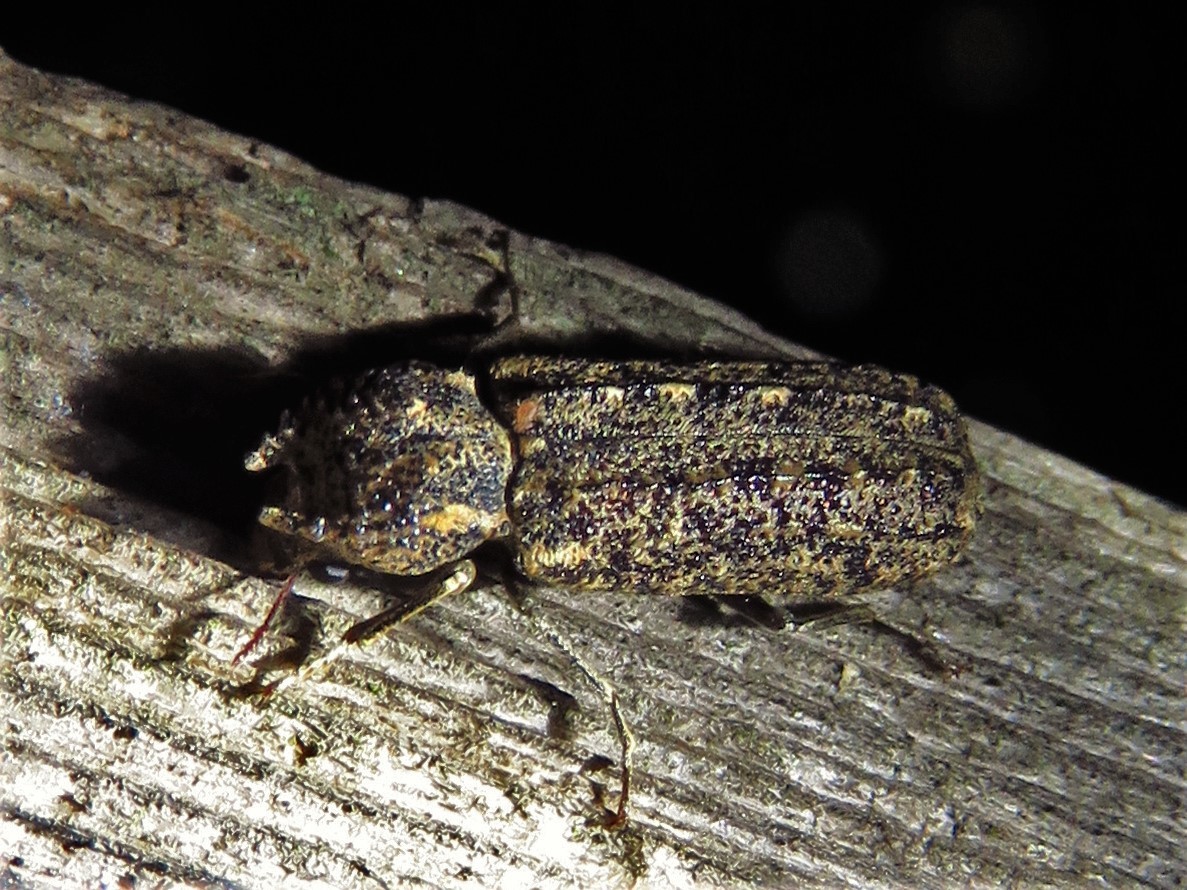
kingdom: Animalia
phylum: Arthropoda
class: Insecta
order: Coleoptera
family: Bostrichidae
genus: Lichenophanes
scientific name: Lichenophanes bicornis
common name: Two-horned powder-post beetle
